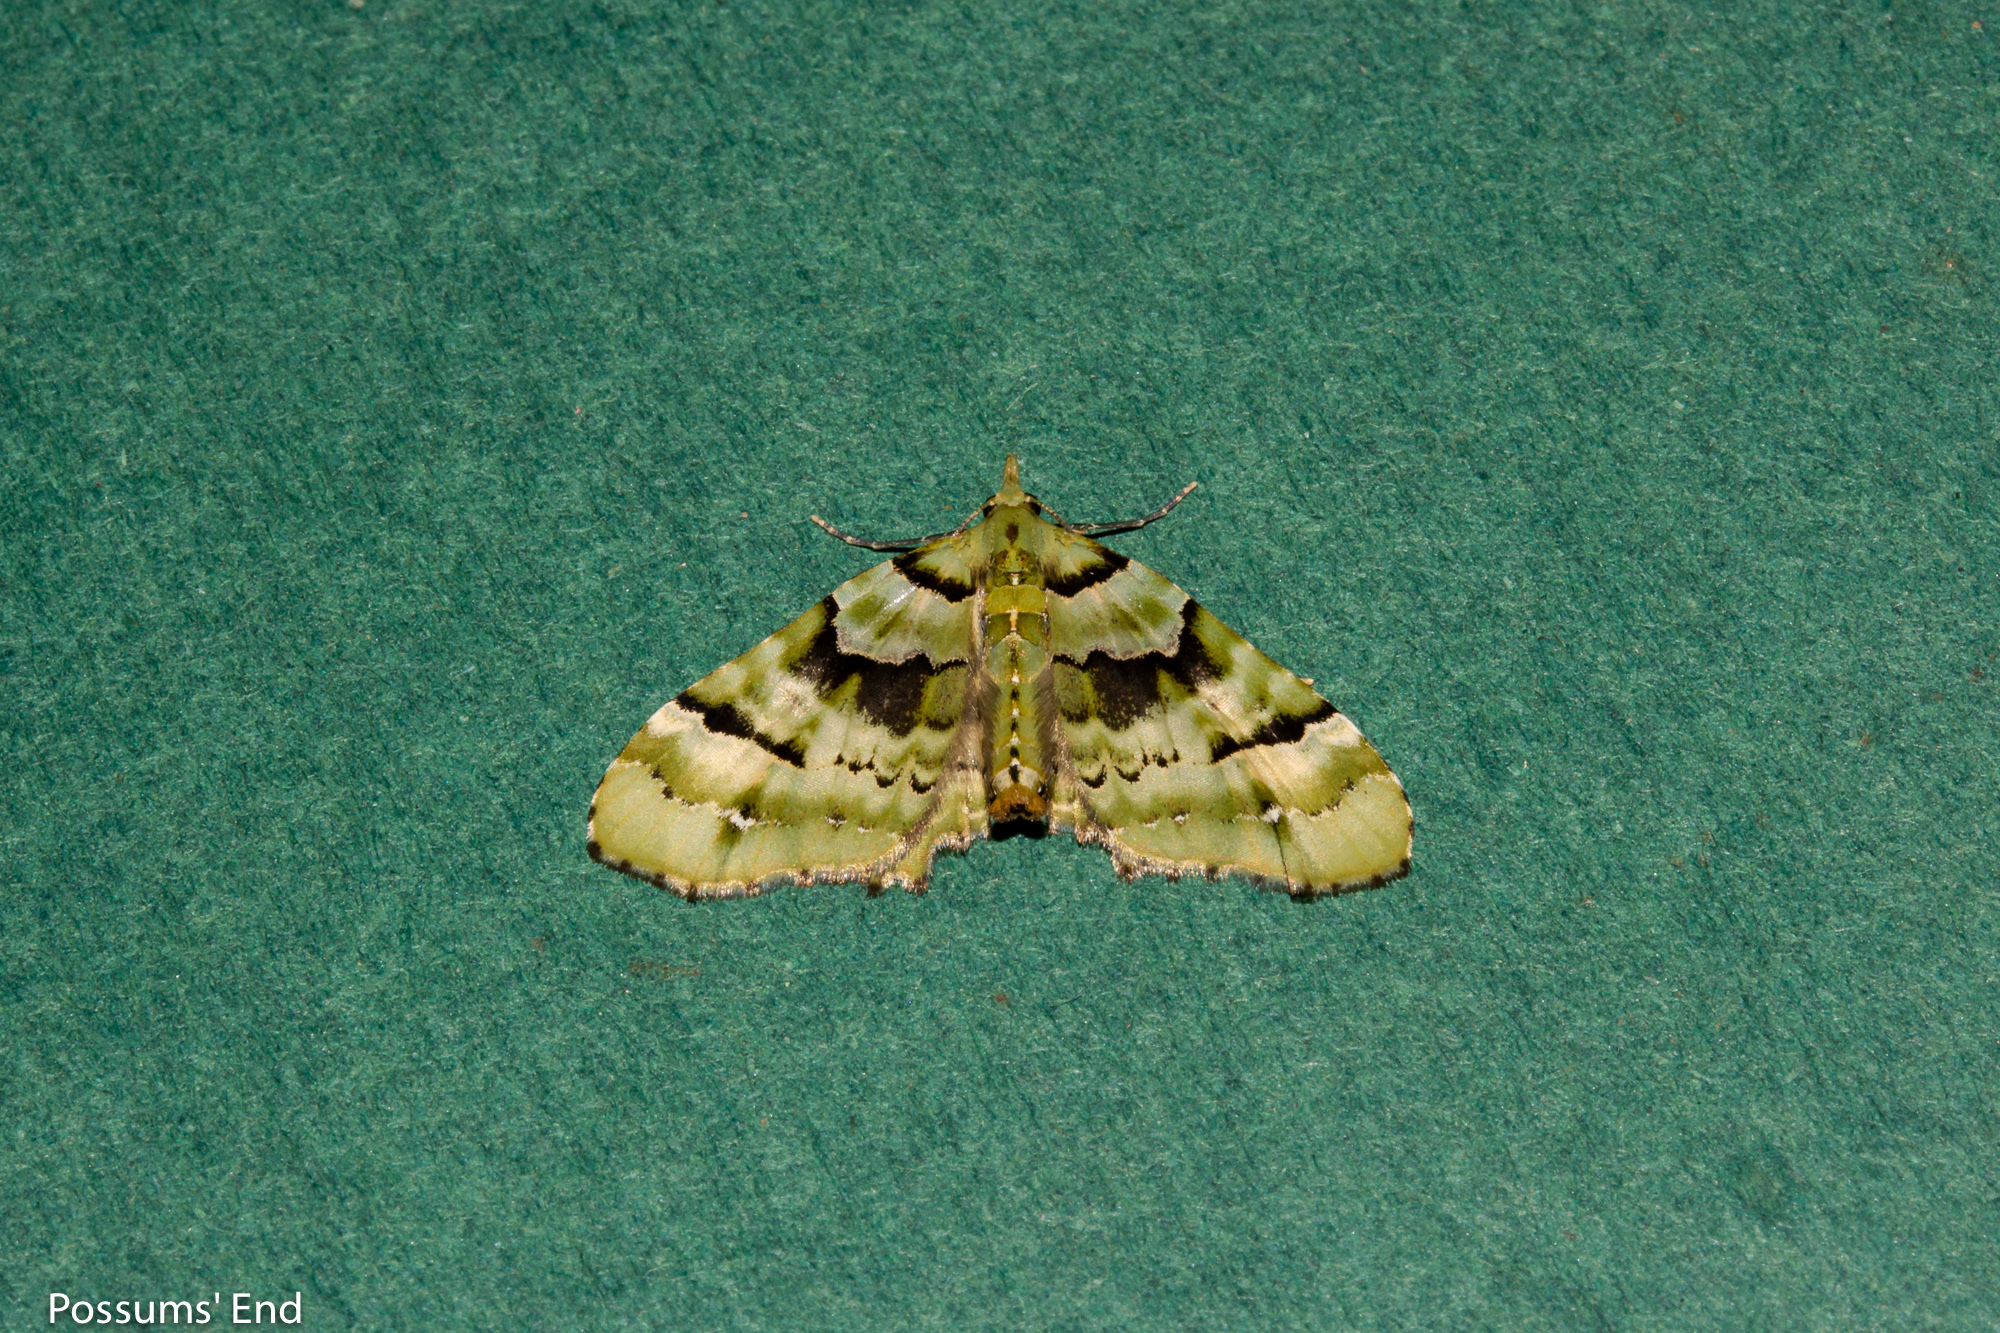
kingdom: Animalia
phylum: Arthropoda
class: Insecta
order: Lepidoptera
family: Geometridae
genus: Elvia
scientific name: Elvia glaucata
